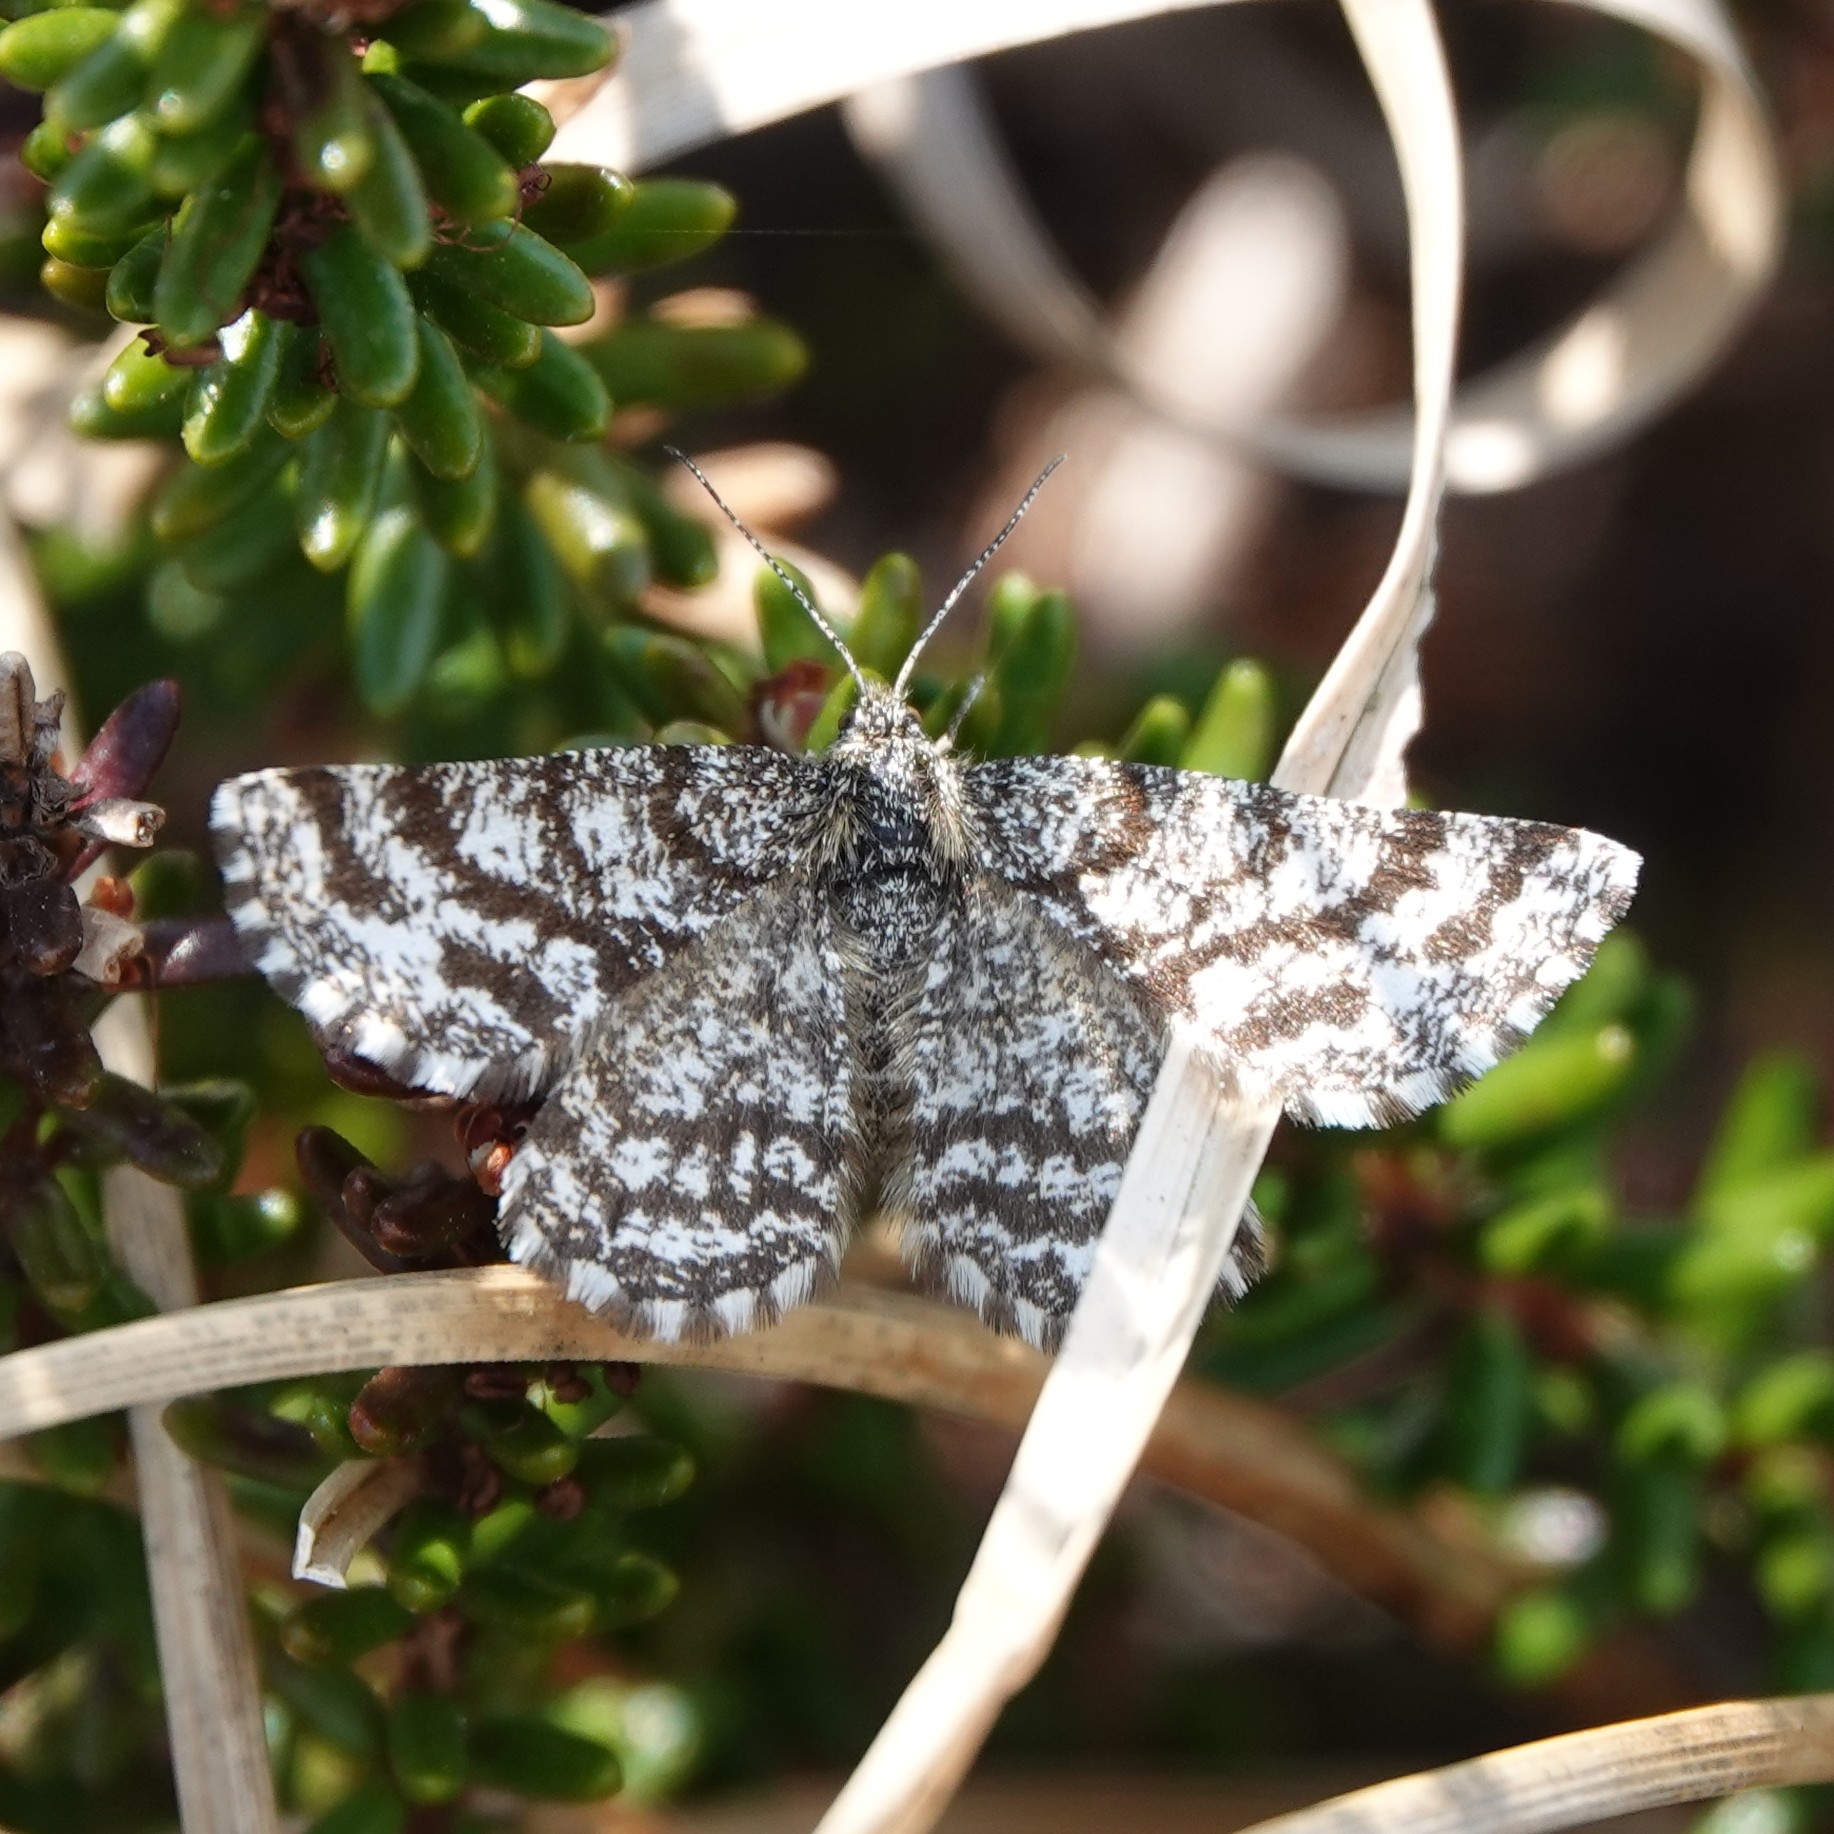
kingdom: Animalia
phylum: Arthropoda
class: Insecta
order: Lepidoptera
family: Geometridae
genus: Ematurga
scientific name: Ematurga atomaria
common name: Common heath
